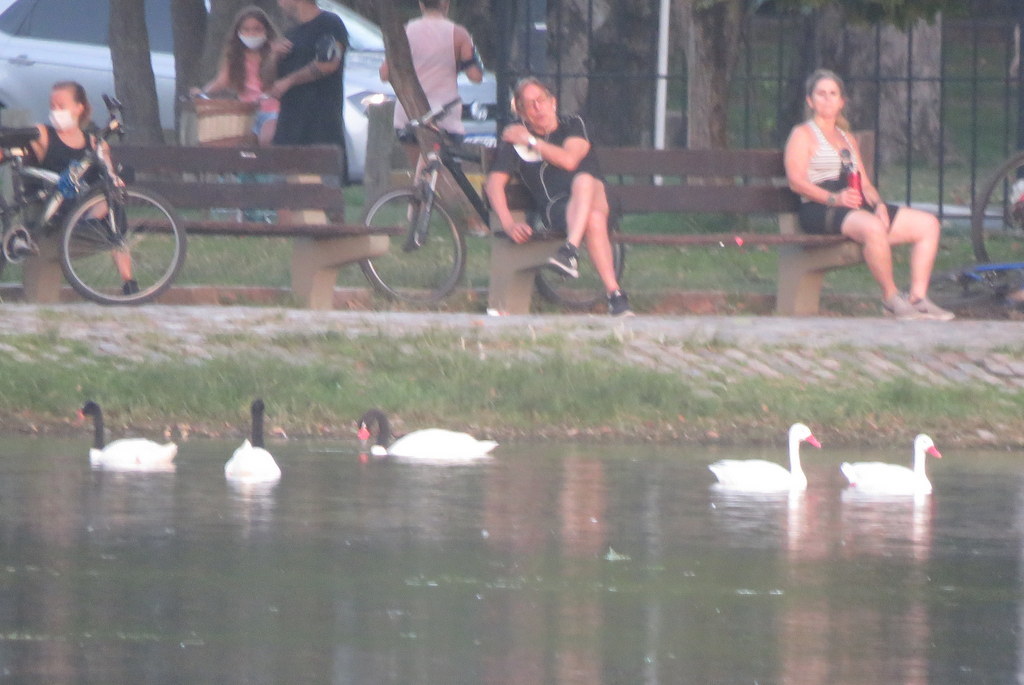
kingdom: Animalia
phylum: Chordata
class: Aves
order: Anseriformes
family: Anatidae
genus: Coscoroba
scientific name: Coscoroba coscoroba
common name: Coscoroba swan
